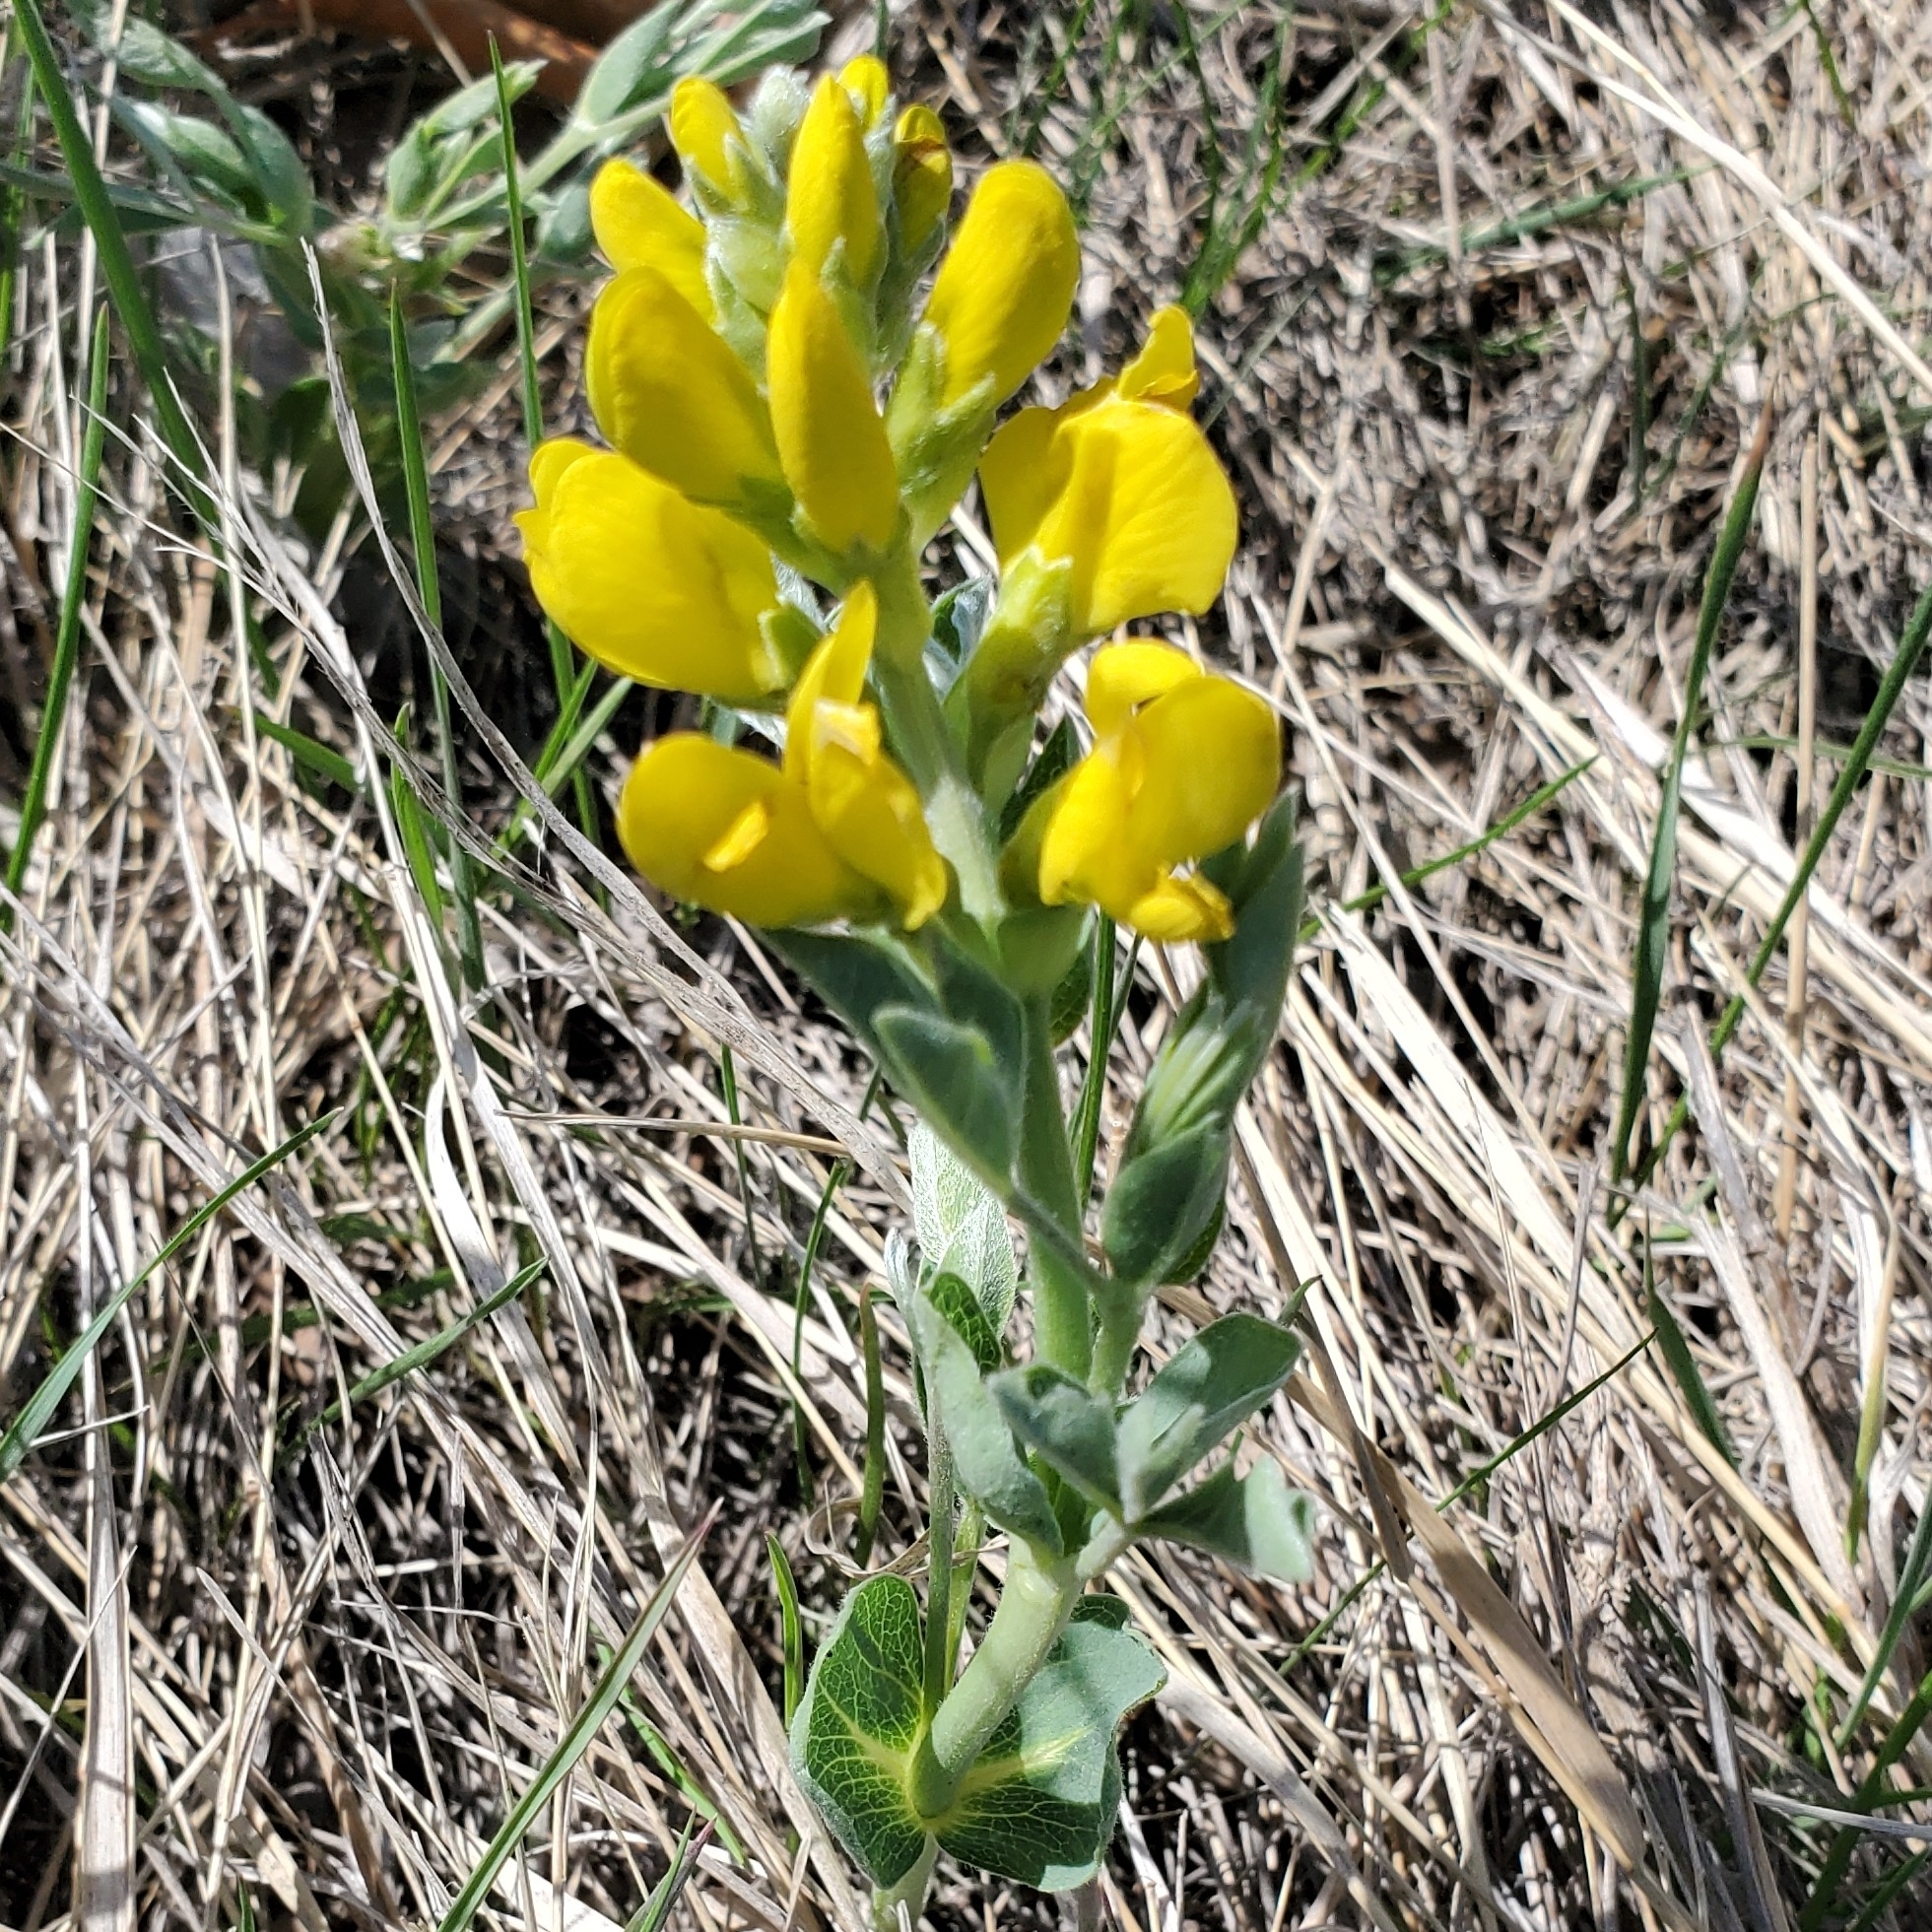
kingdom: Plantae
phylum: Tracheophyta
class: Magnoliopsida
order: Fabales
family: Fabaceae
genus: Thermopsis
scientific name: Thermopsis rhombifolia
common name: Circle-pod-pea
